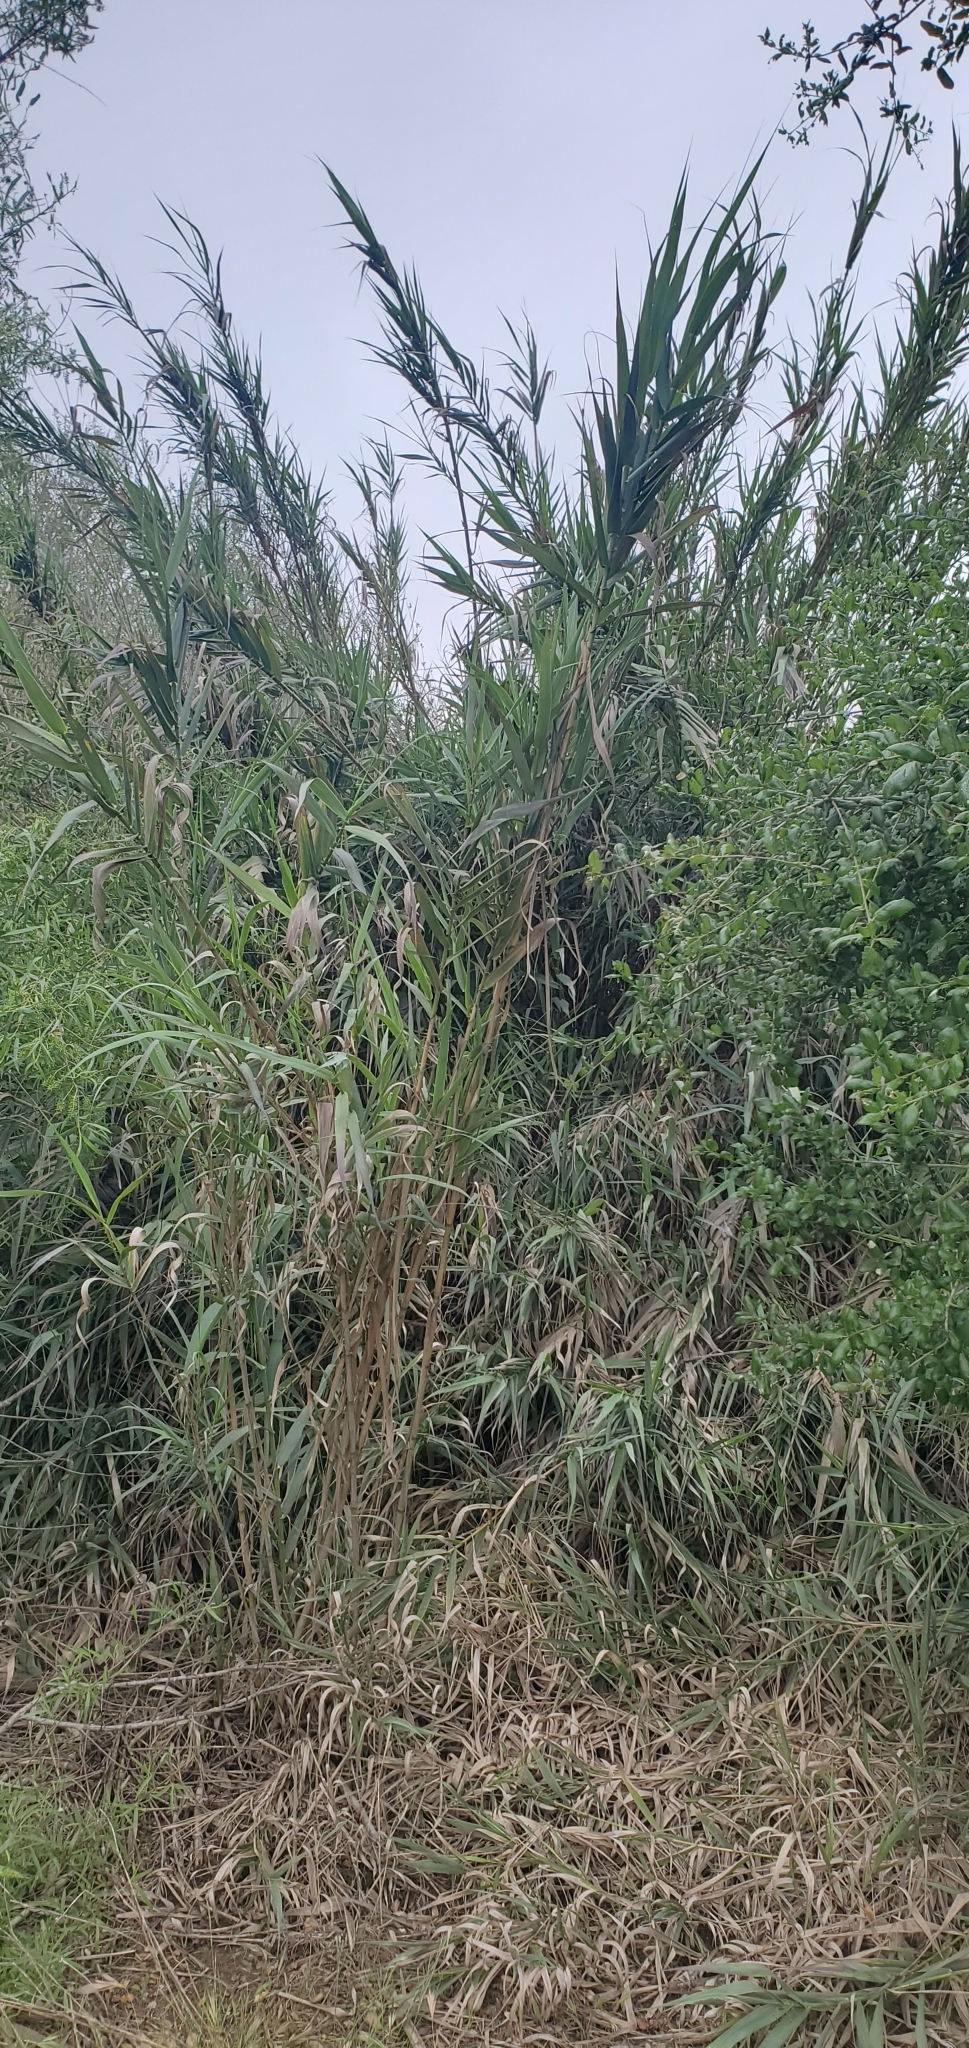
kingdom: Plantae
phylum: Tracheophyta
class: Liliopsida
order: Poales
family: Poaceae
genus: Arundo
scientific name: Arundo donax
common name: Giant reed
